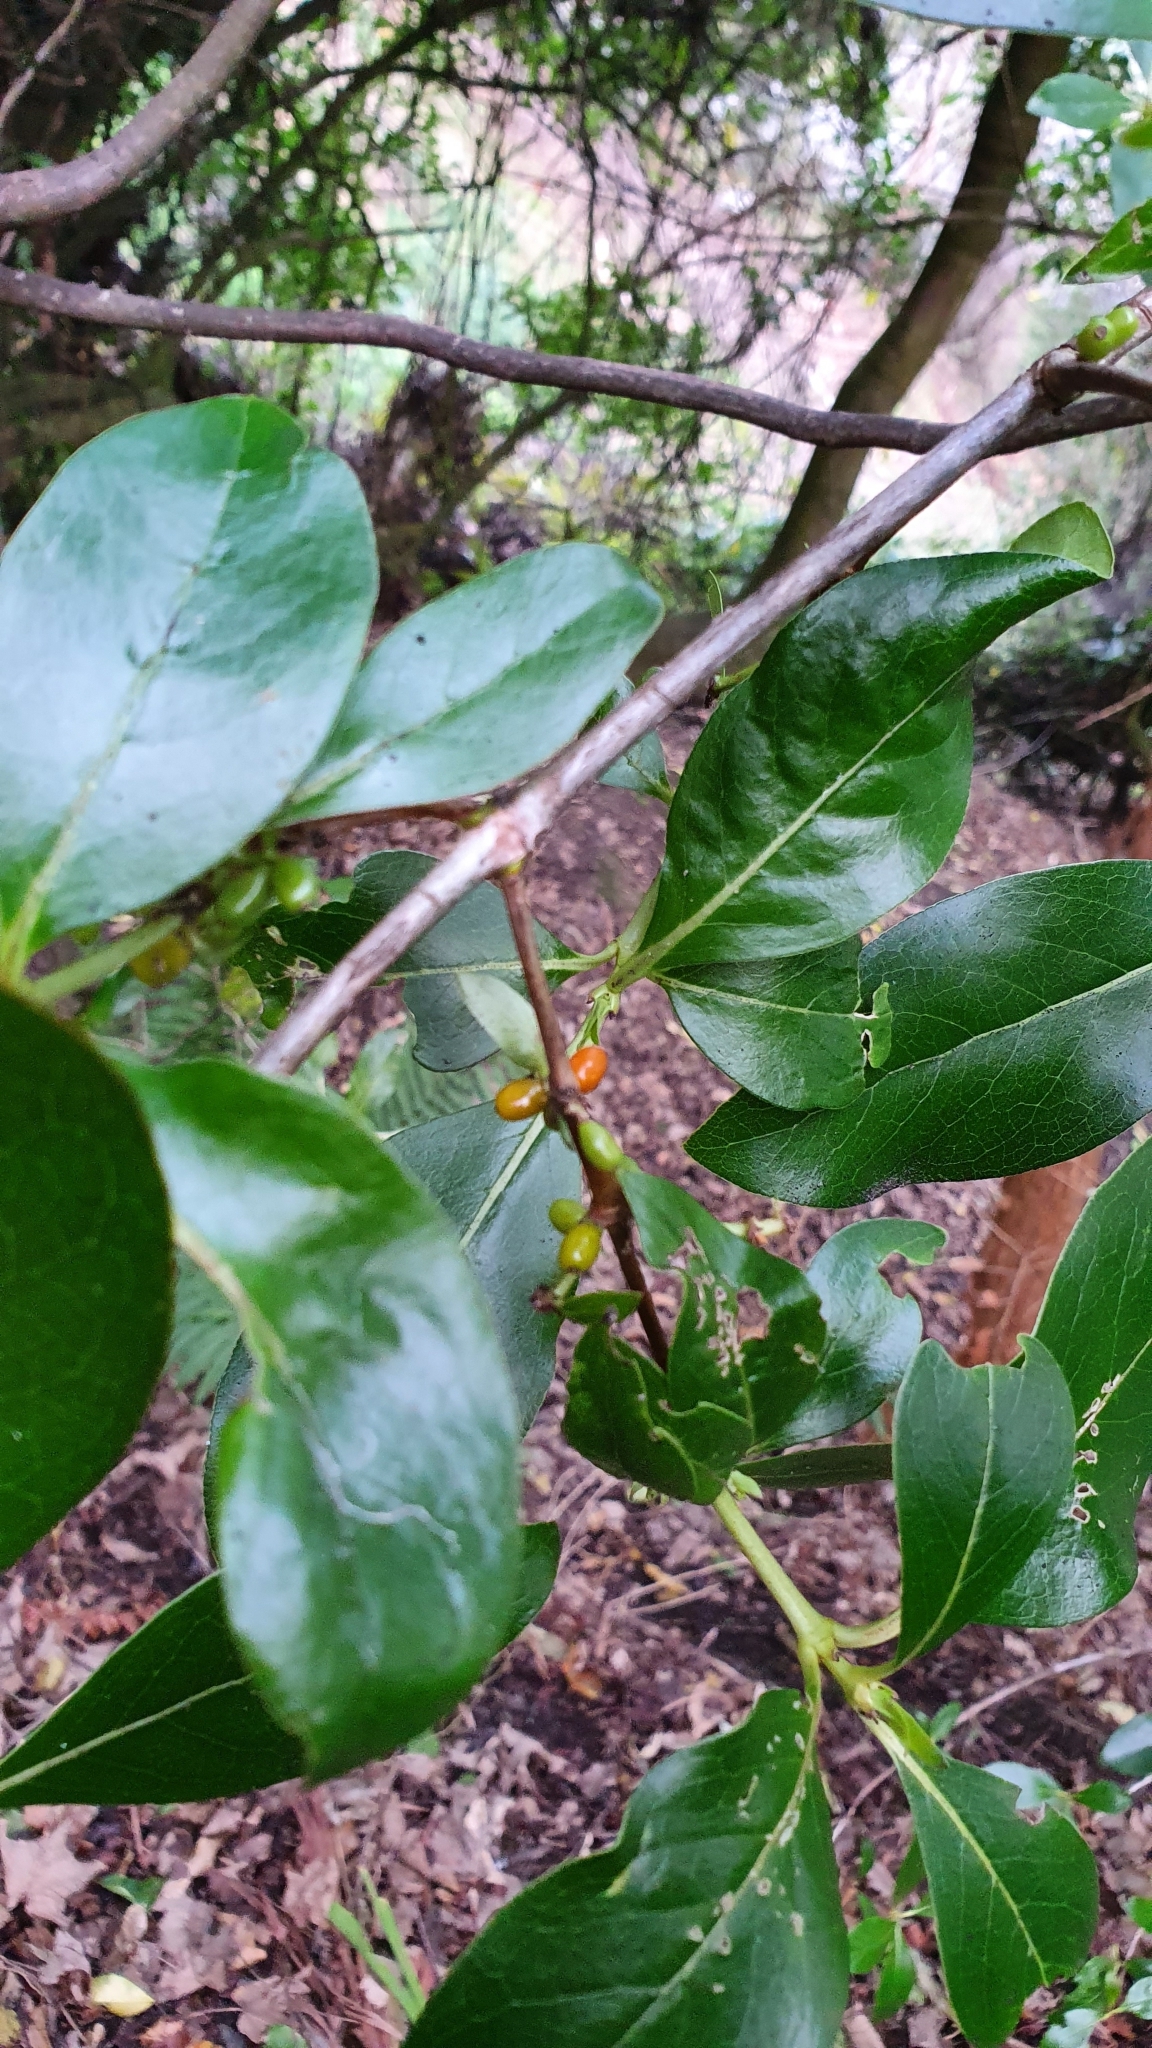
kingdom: Plantae
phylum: Tracheophyta
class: Magnoliopsida
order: Gentianales
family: Rubiaceae
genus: Coprosma
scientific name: Coprosma robusta
